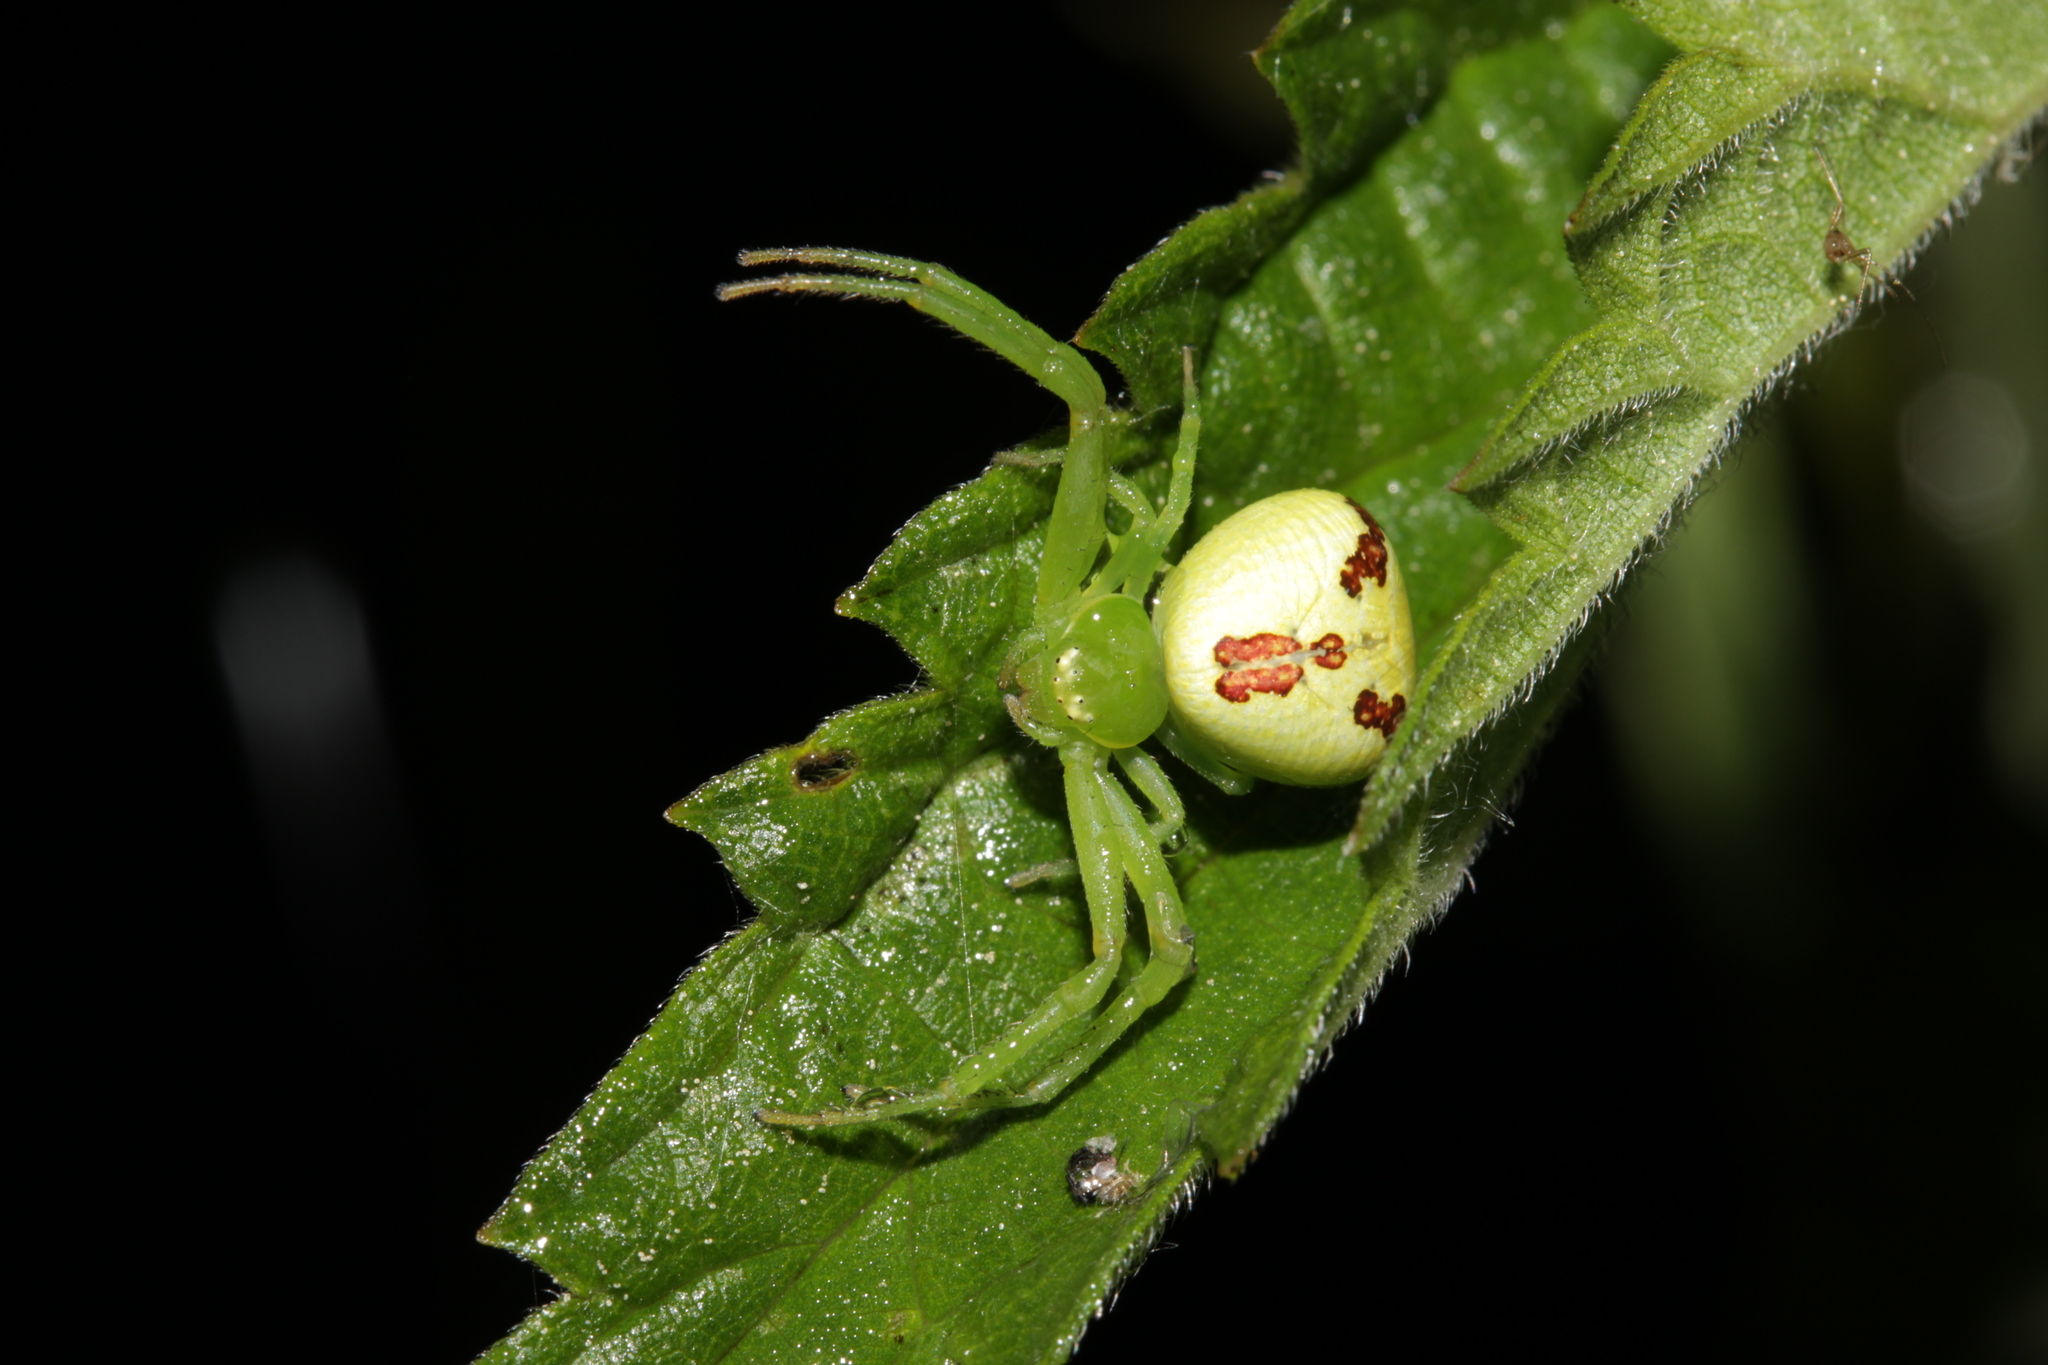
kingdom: Animalia
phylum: Arthropoda
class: Arachnida
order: Araneae
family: Thomisidae
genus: Ebrechtella
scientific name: Ebrechtella tricuspidata
